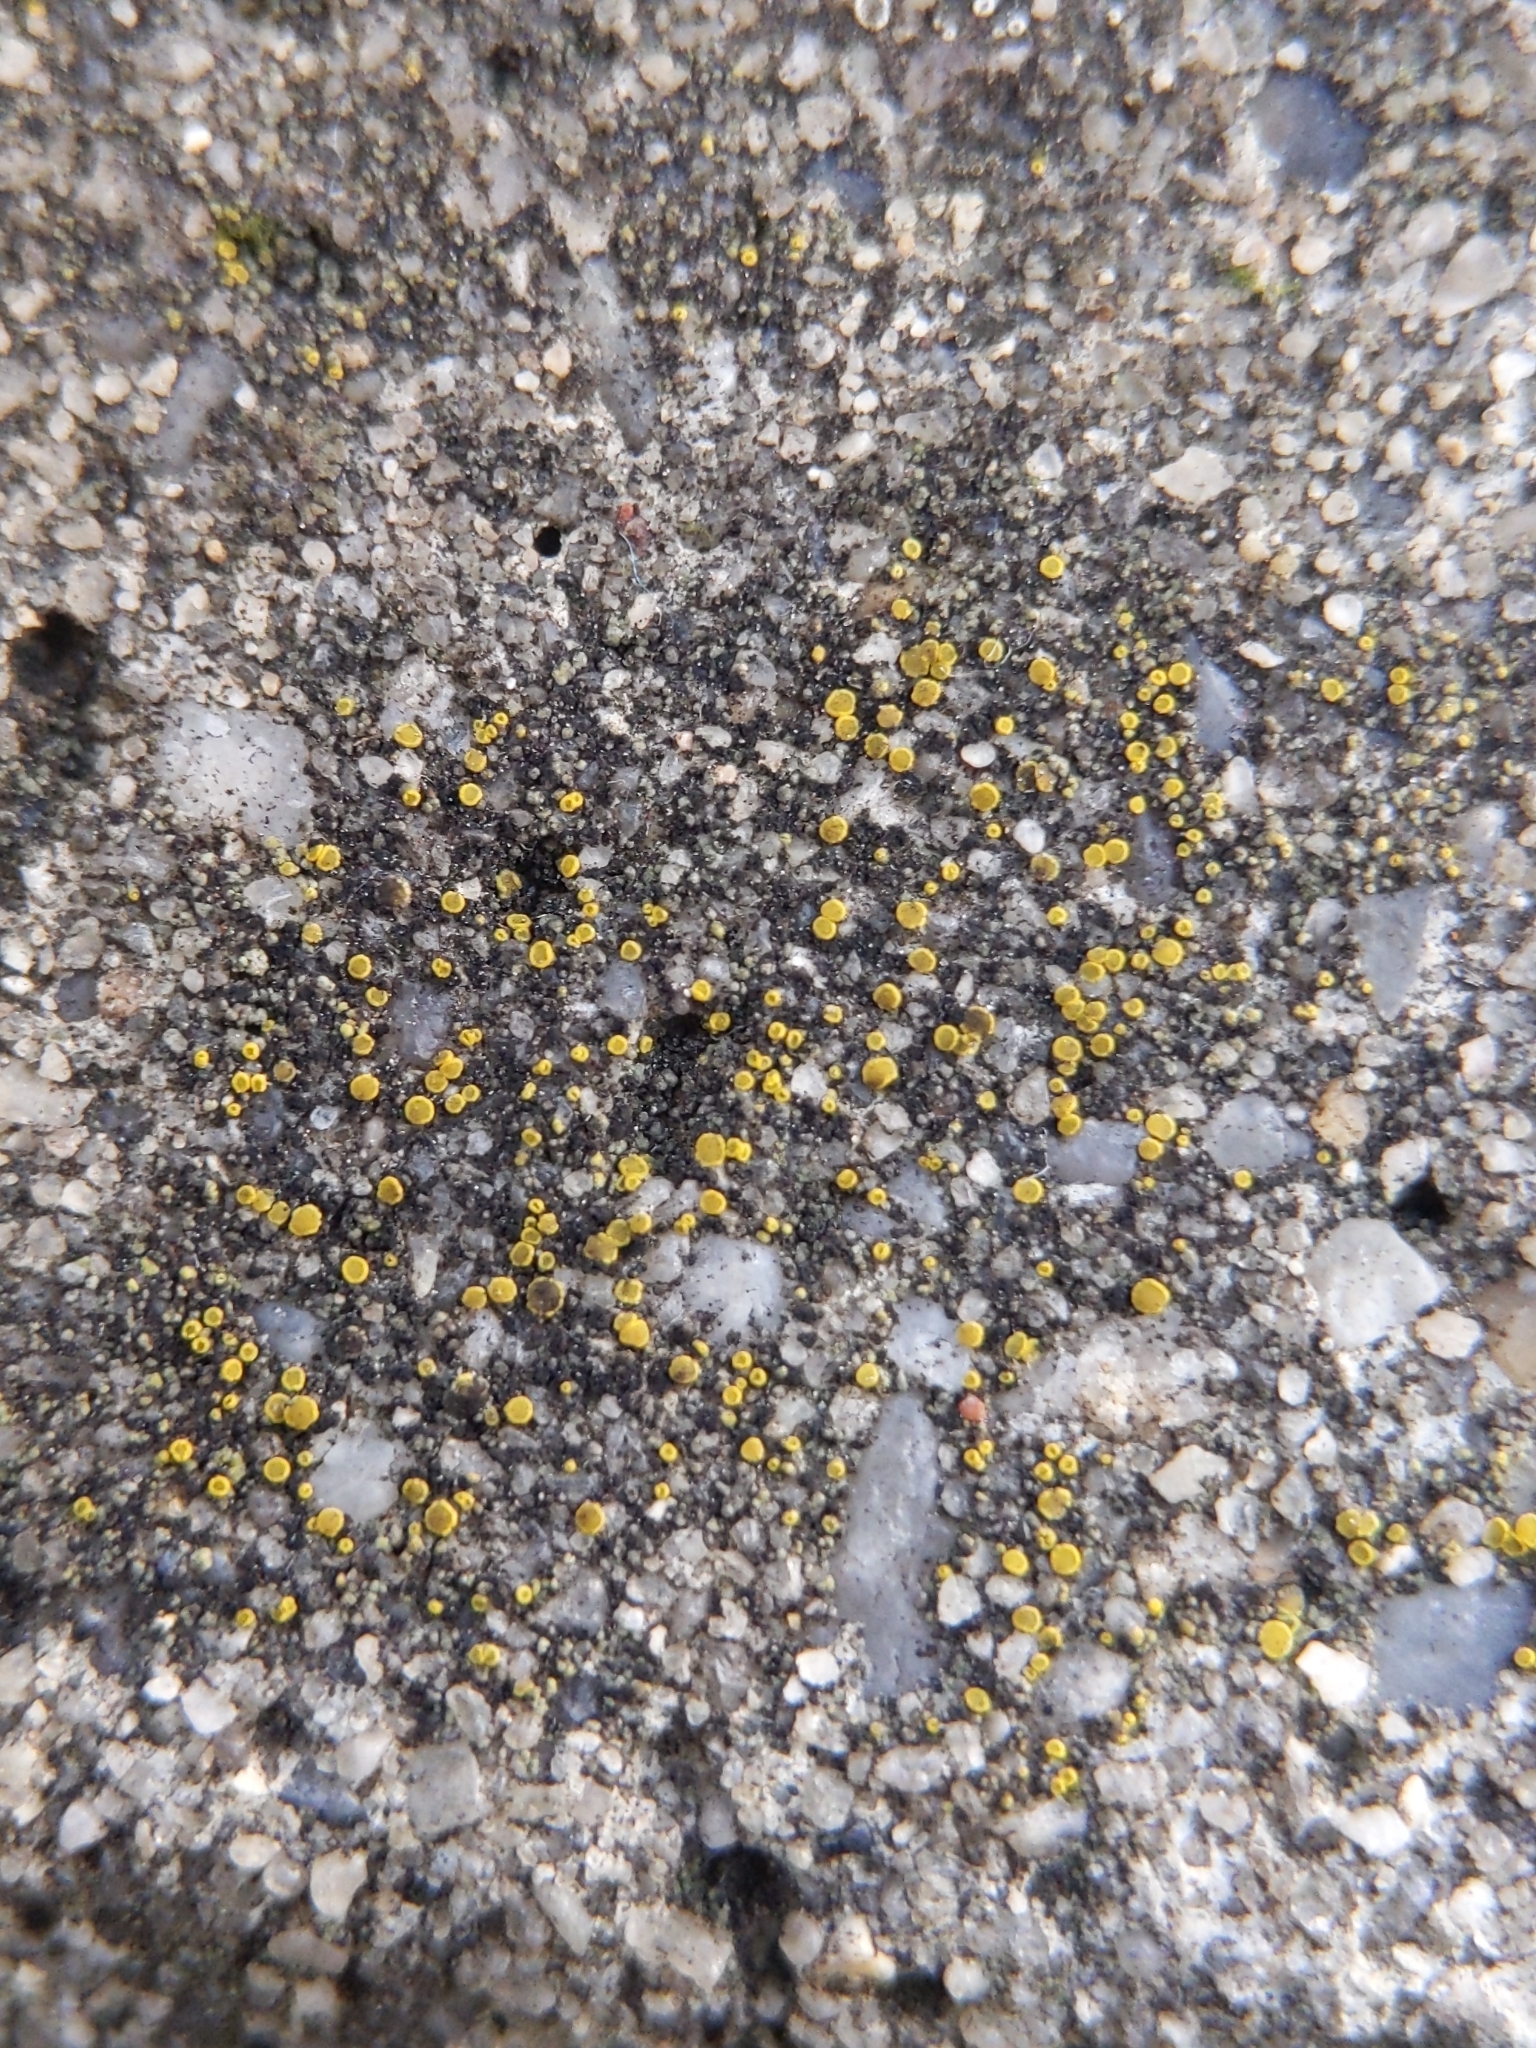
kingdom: Fungi
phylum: Ascomycota
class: Candelariomycetes
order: Candelariales
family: Candelariaceae
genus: Candelariella
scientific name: Candelariella aurella
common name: Hidden goldspeck lichen
